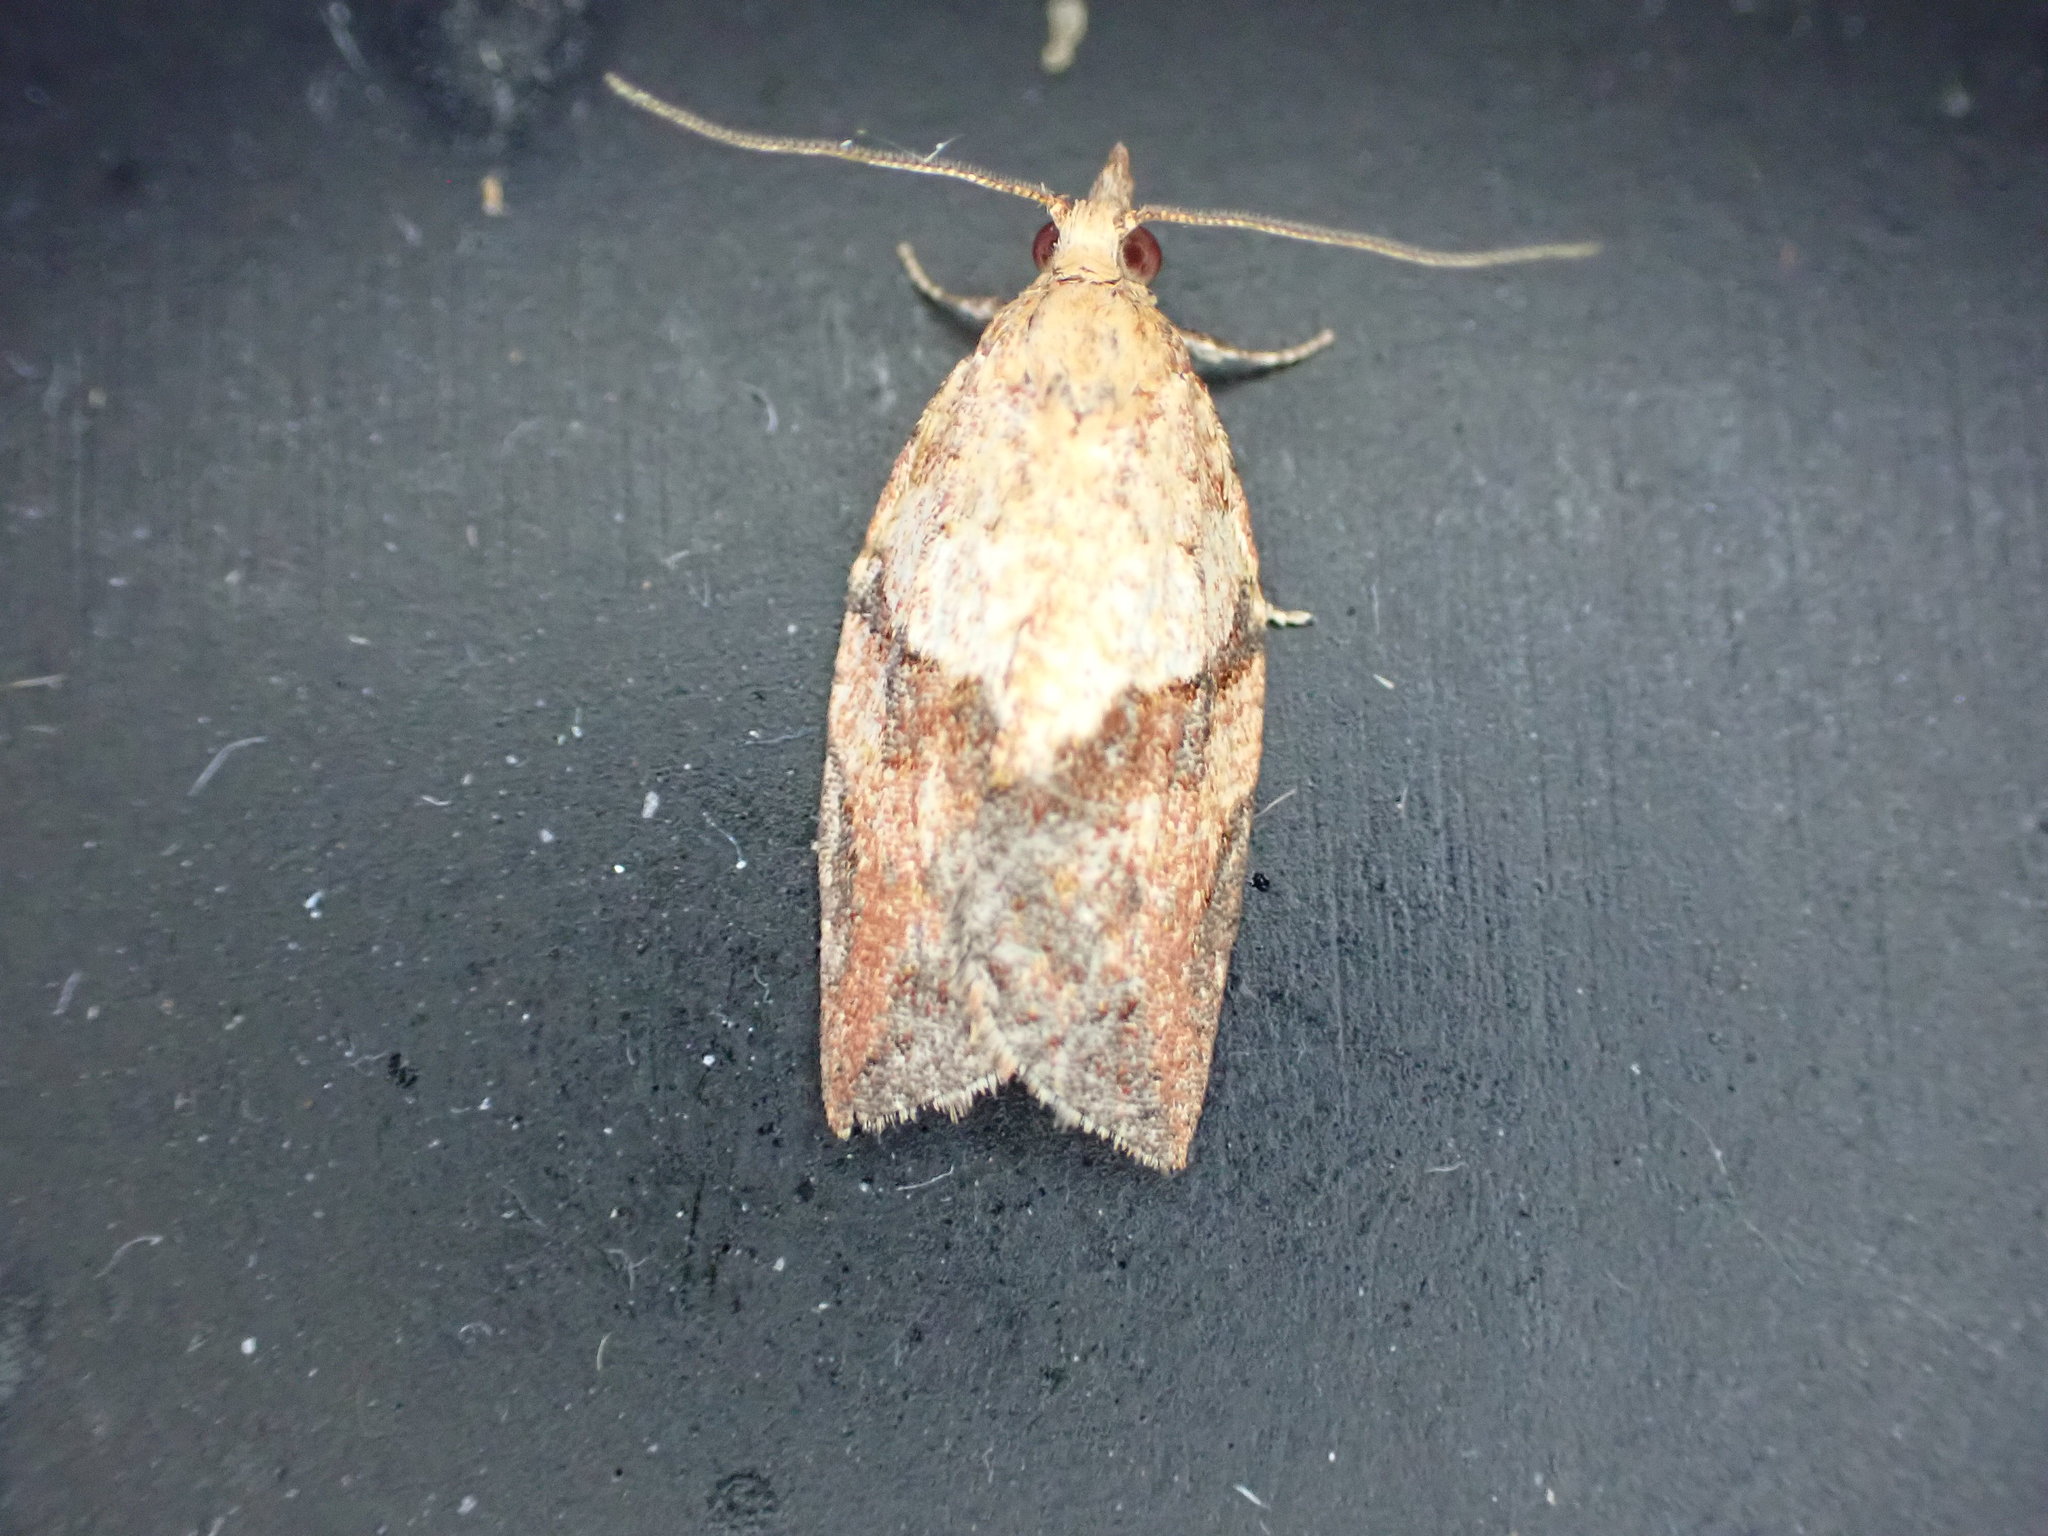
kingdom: Animalia
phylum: Arthropoda
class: Insecta
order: Lepidoptera
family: Tortricidae
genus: Epiphyas
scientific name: Epiphyas postvittana
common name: Light brown apple moth
